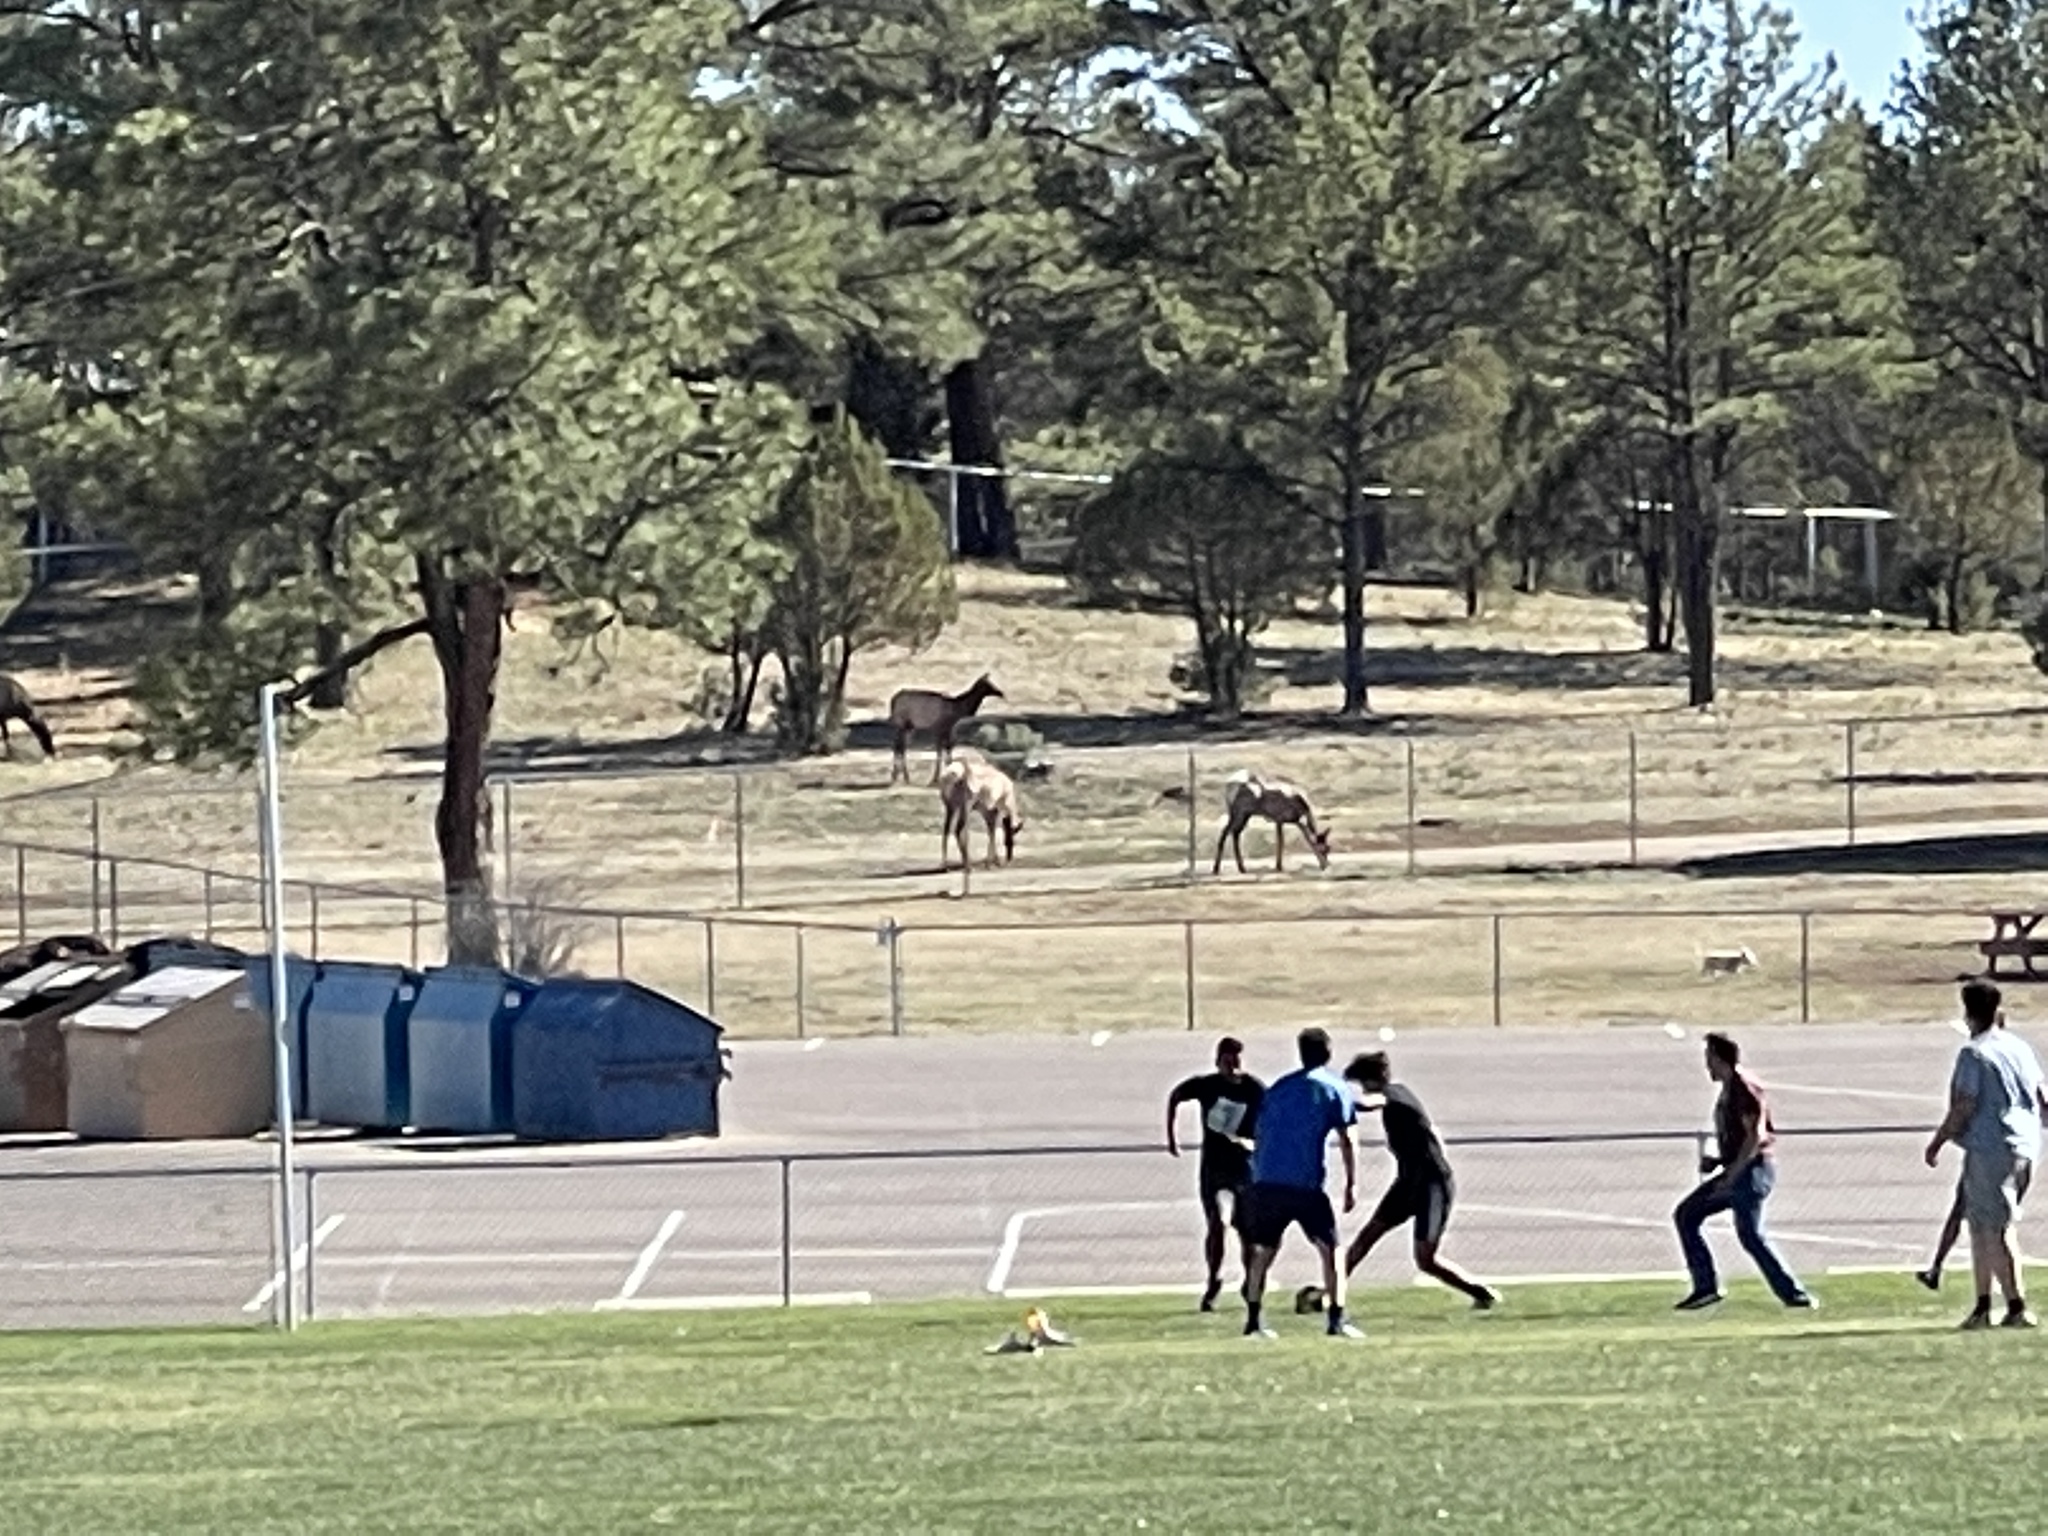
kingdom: Animalia
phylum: Chordata
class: Mammalia
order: Artiodactyla
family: Cervidae
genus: Cervus
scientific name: Cervus elaphus
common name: Red deer
